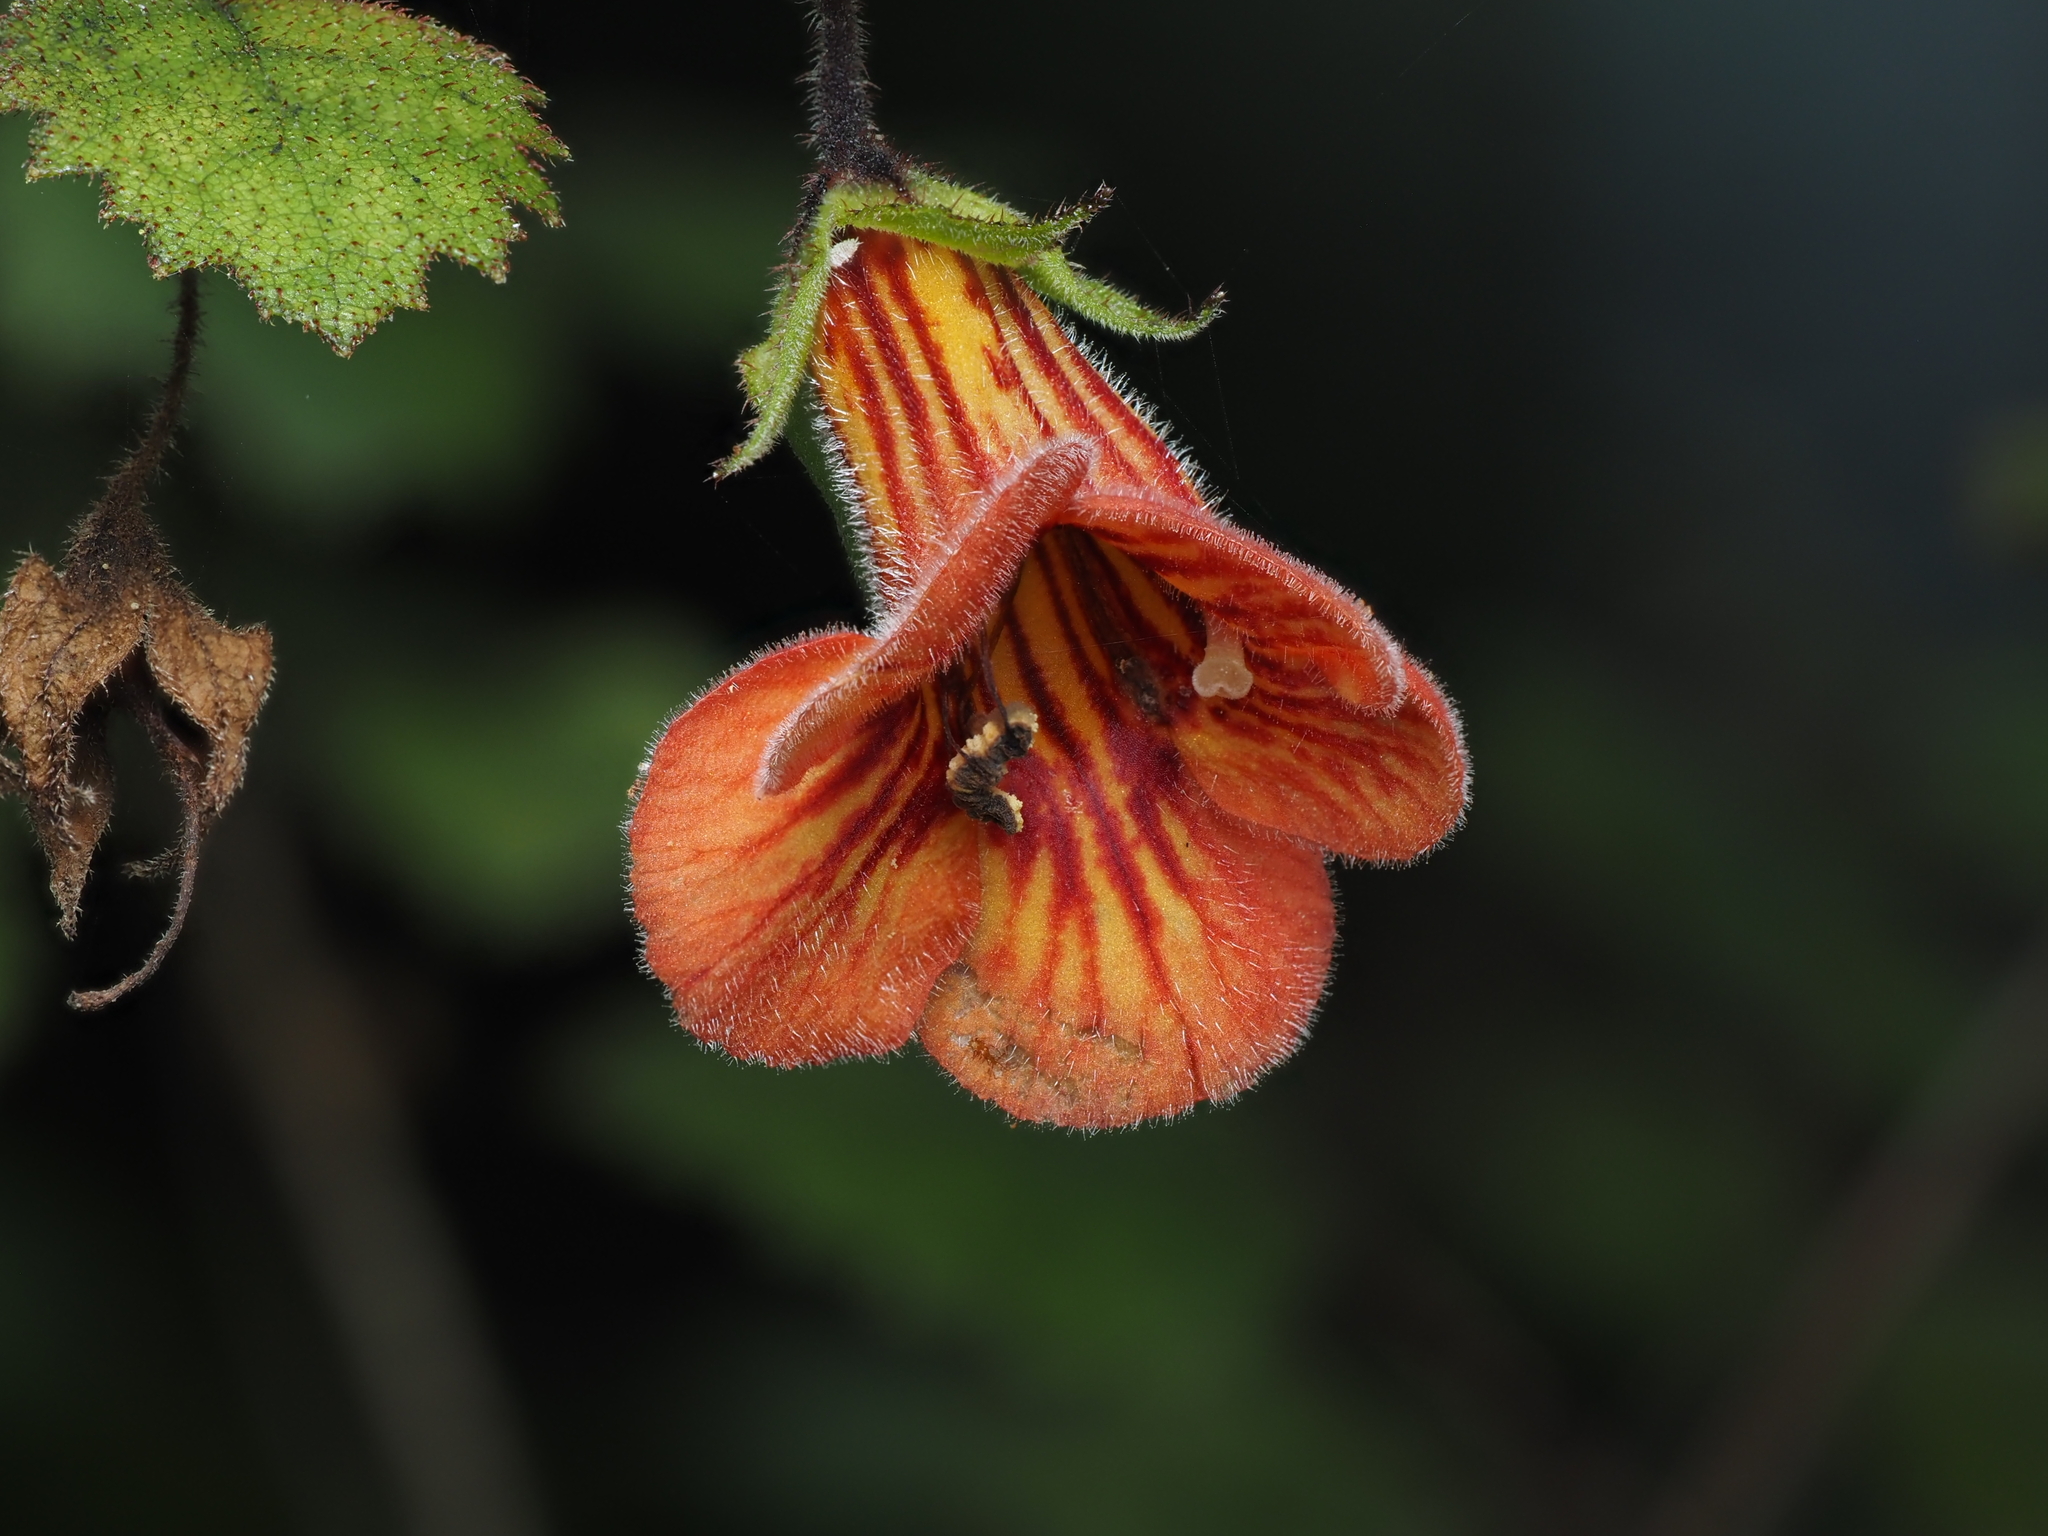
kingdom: Plantae
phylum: Tracheophyta
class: Magnoliopsida
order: Lamiales
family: Gesneriaceae
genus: Rhabdothamnus
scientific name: Rhabdothamnus solandri
